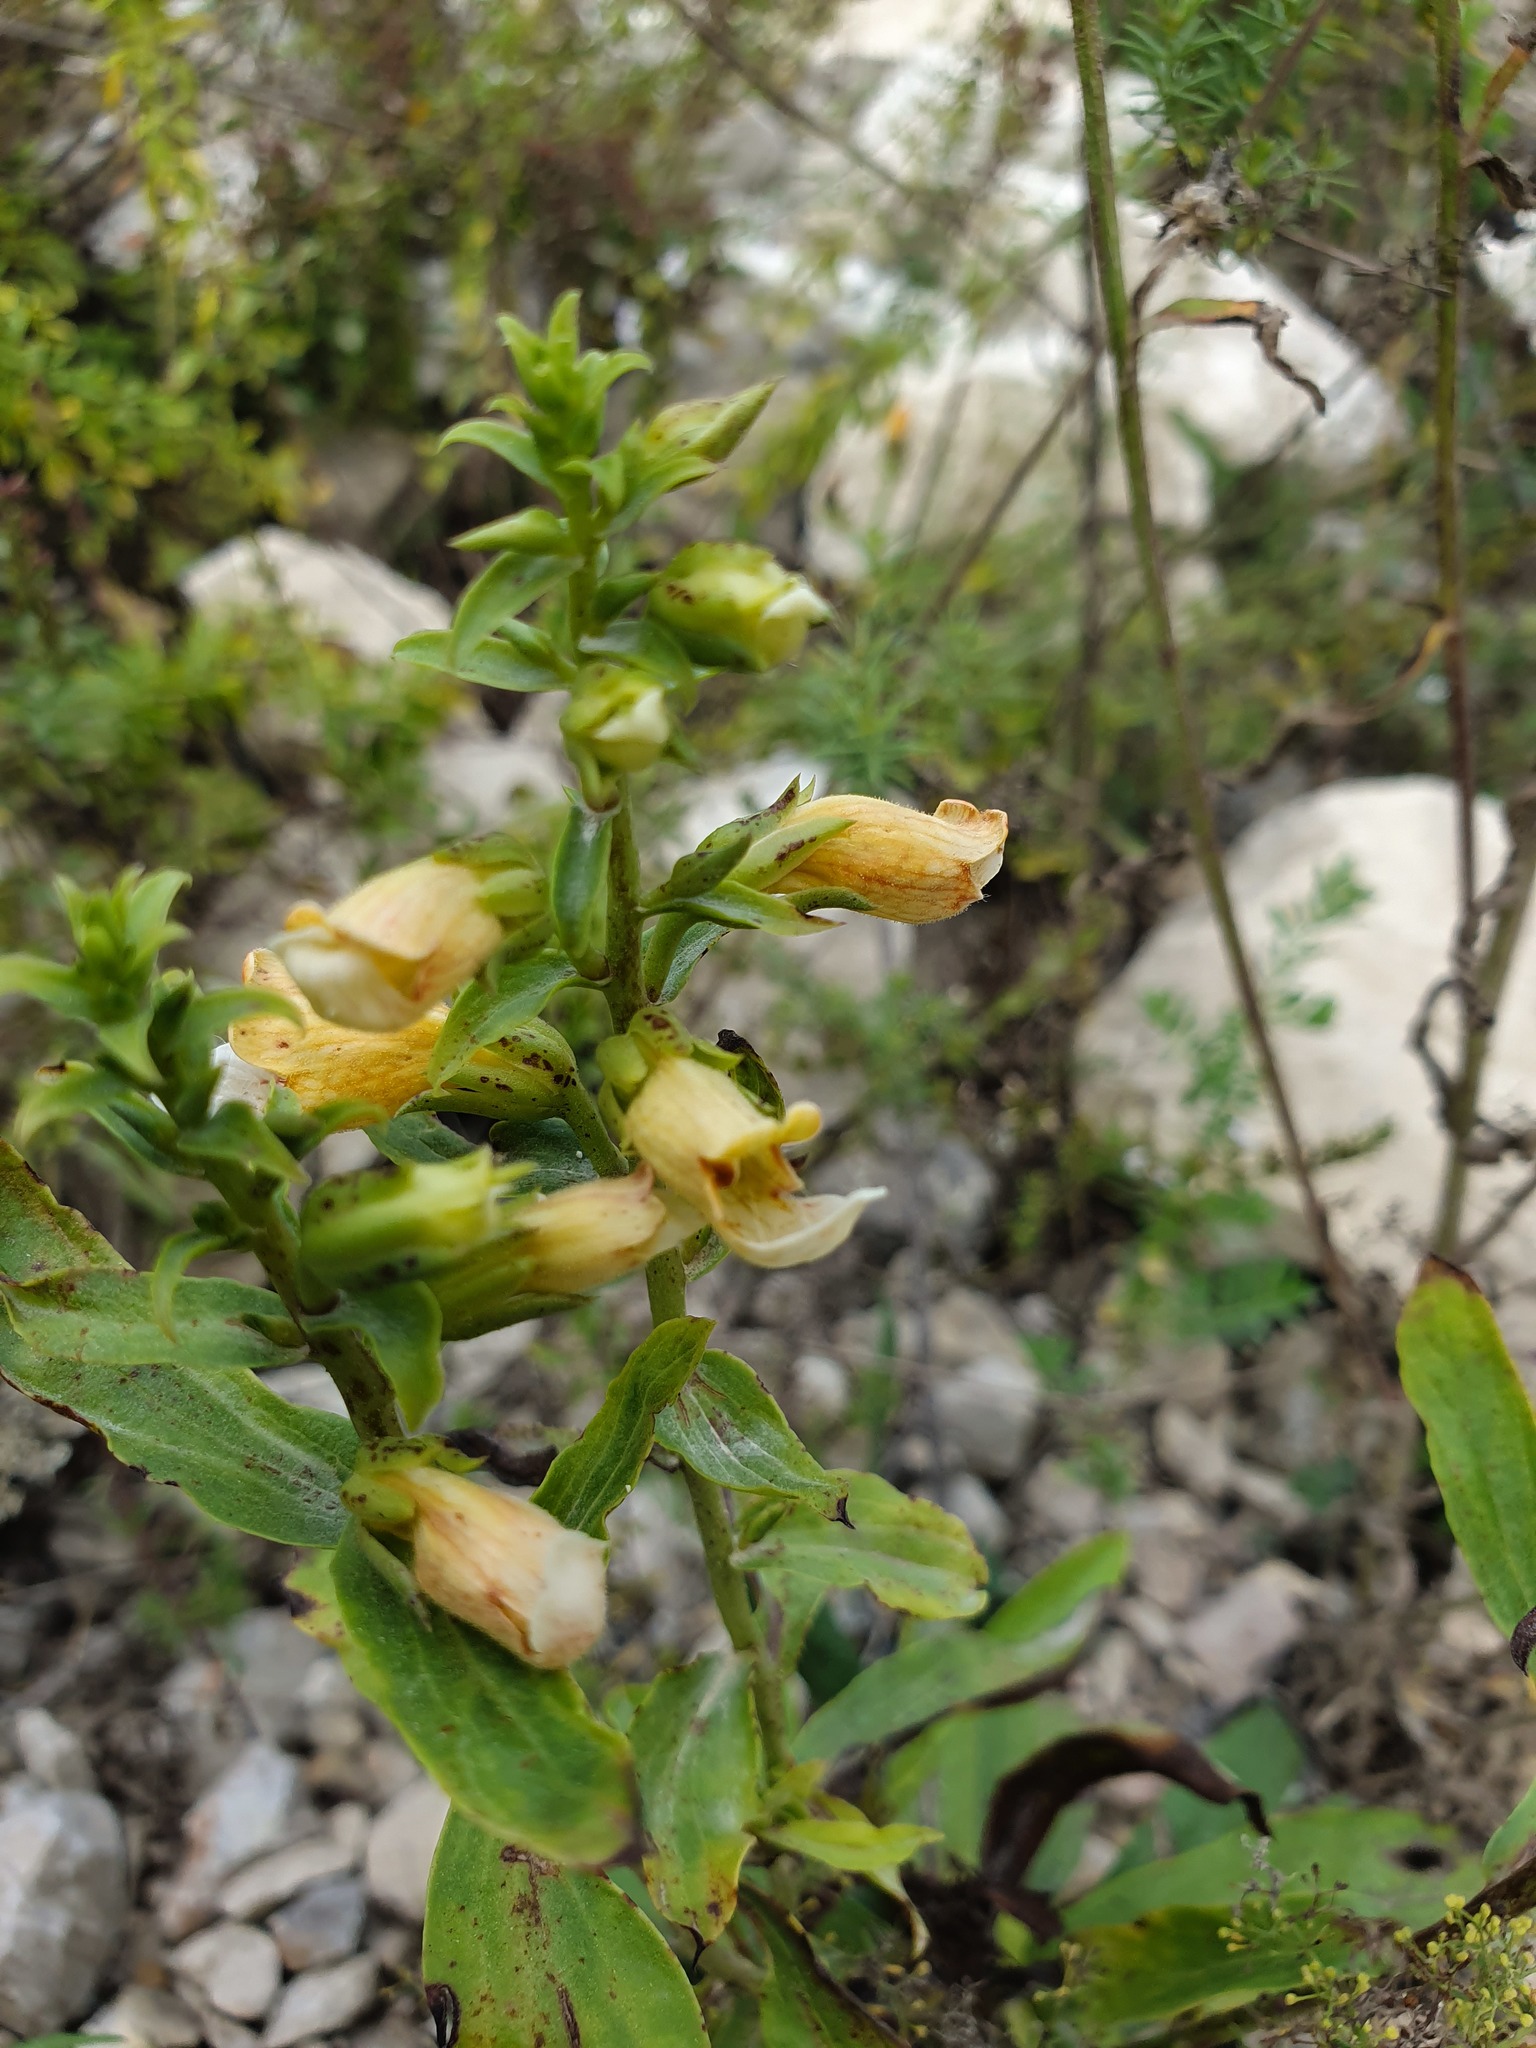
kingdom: Plantae
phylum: Tracheophyta
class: Magnoliopsida
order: Lamiales
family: Plantaginaceae
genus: Digitalis
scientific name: Digitalis laevigata
